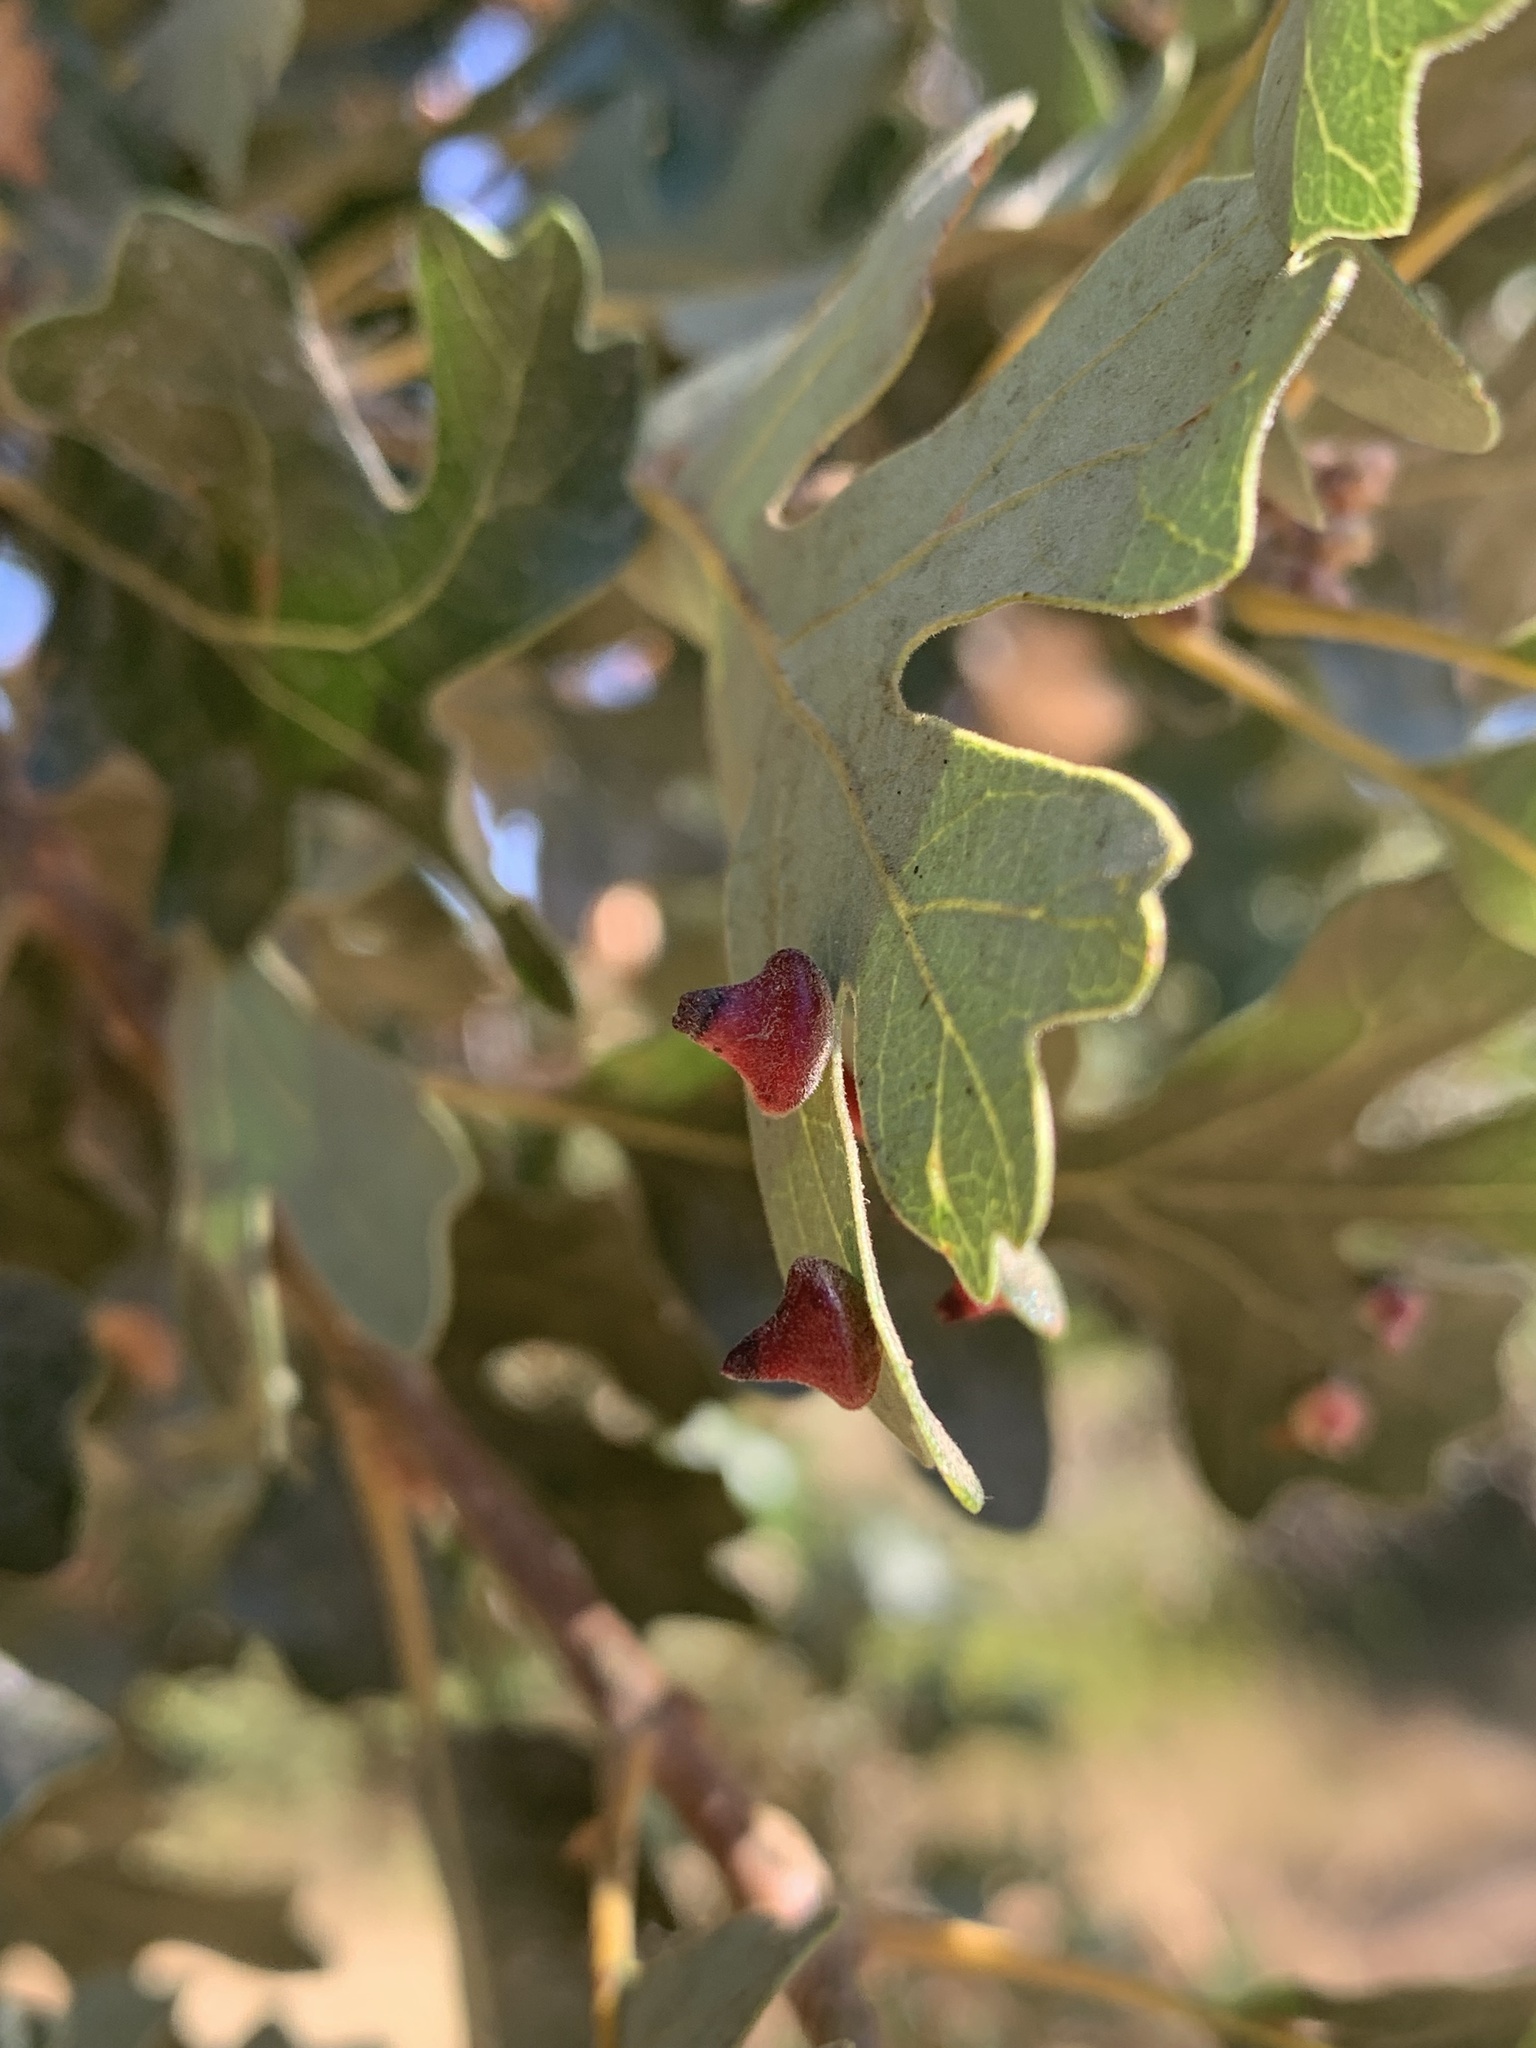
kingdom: Animalia
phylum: Arthropoda
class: Insecta
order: Hymenoptera
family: Cynipidae
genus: Andricus
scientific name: Andricus
